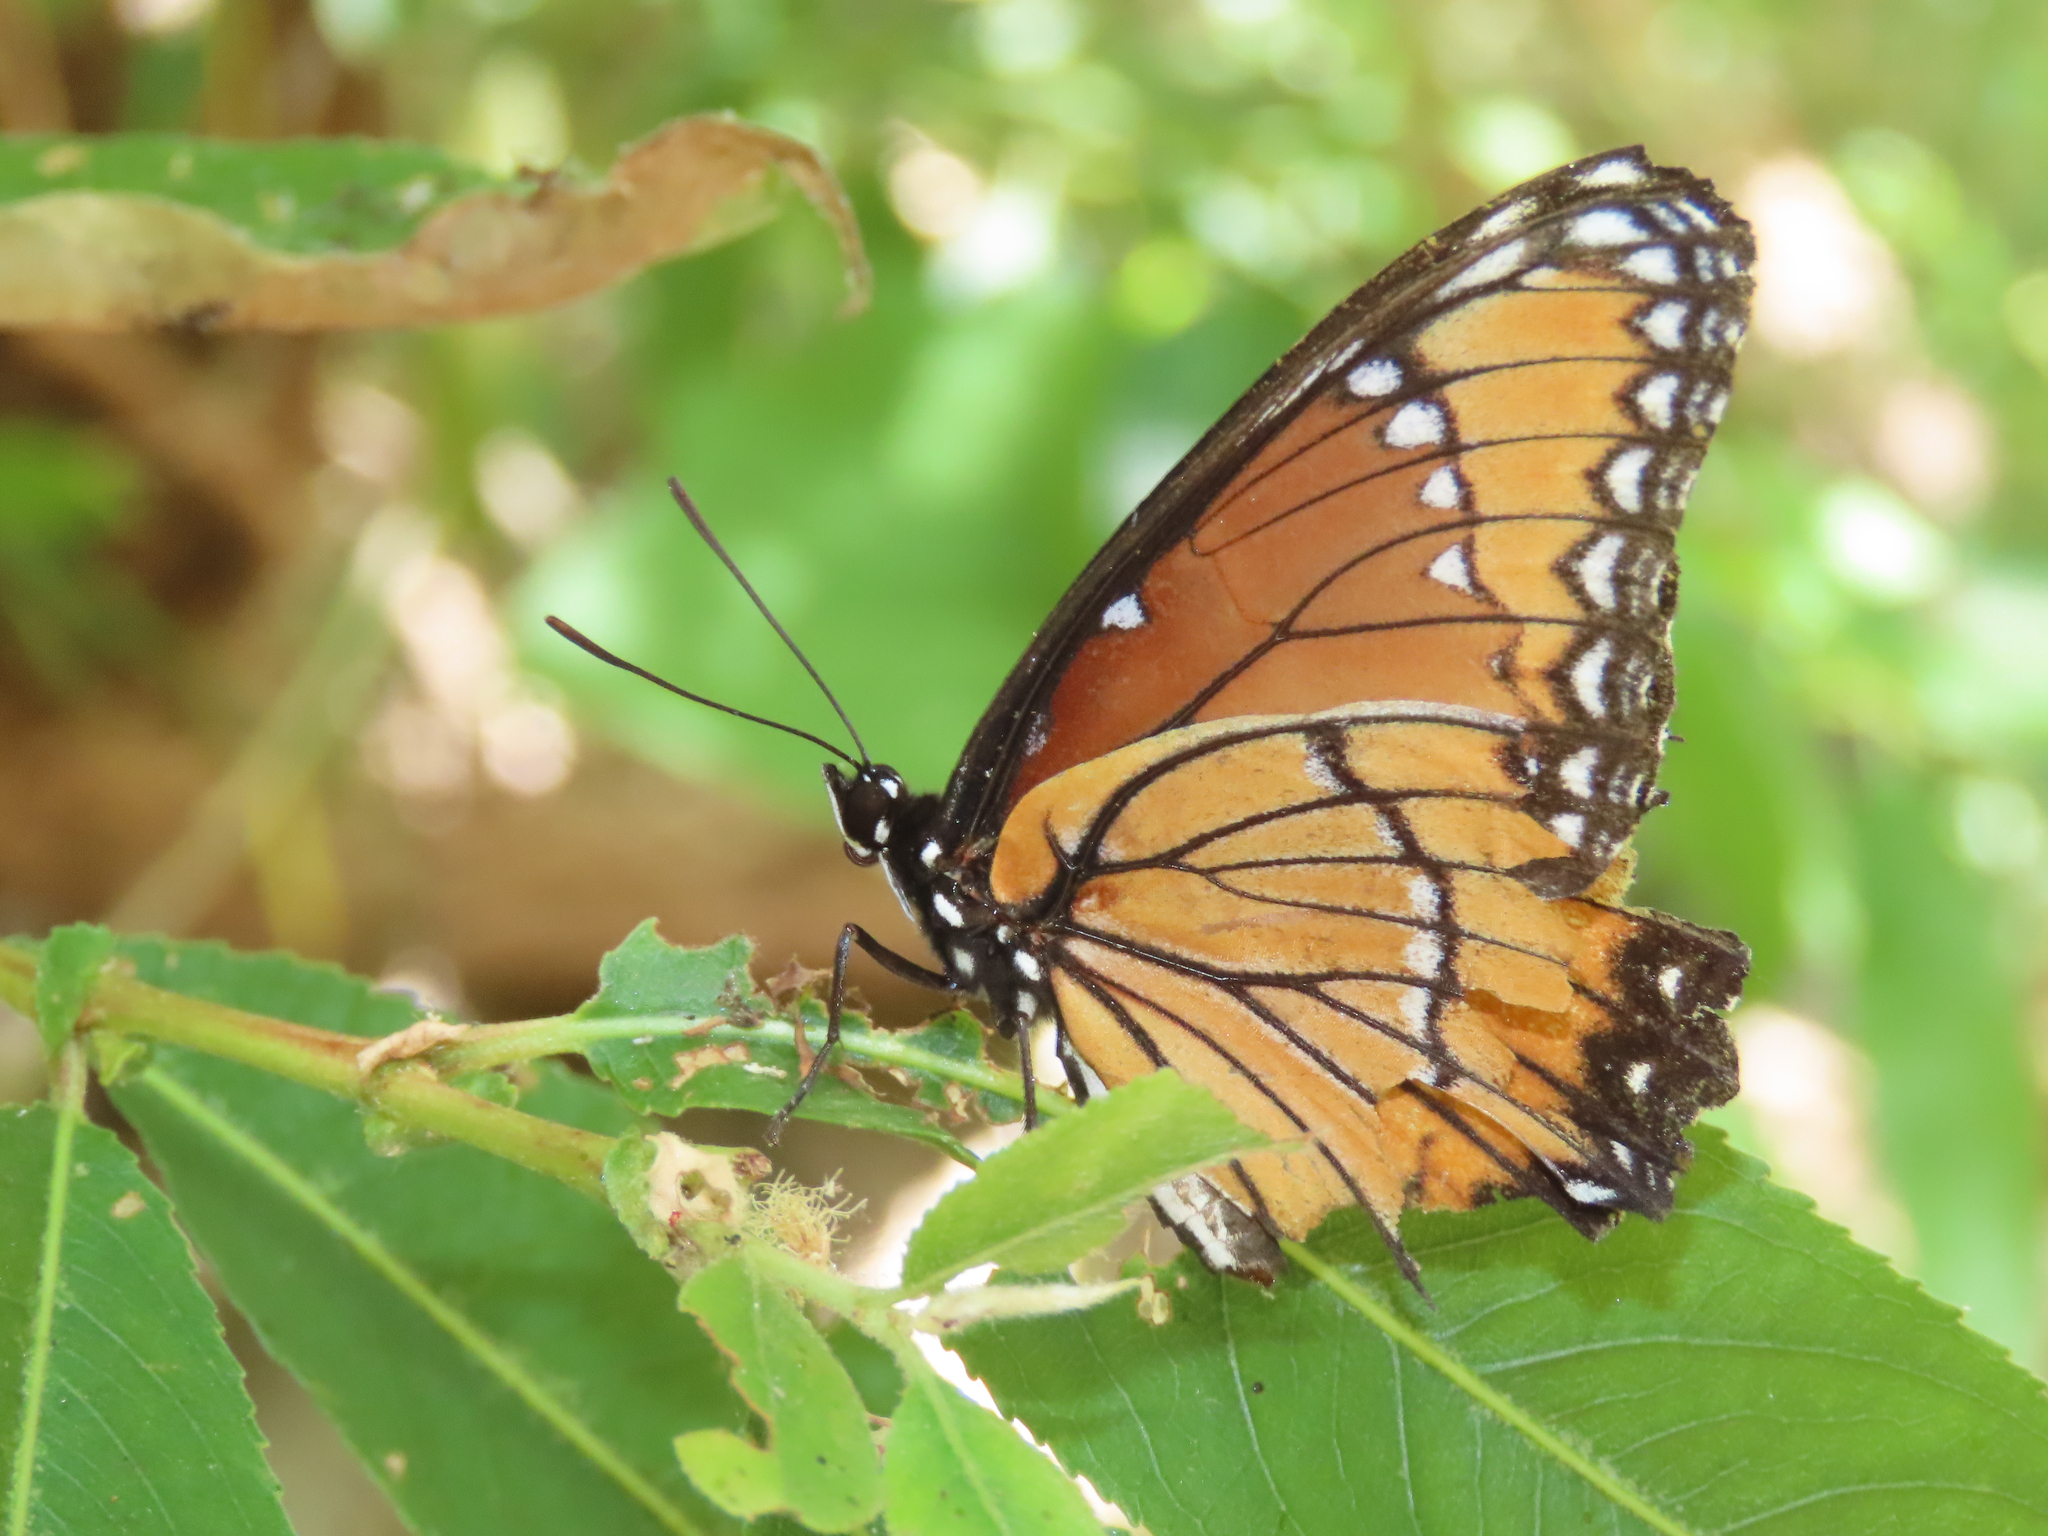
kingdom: Animalia
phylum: Arthropoda
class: Insecta
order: Lepidoptera
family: Nymphalidae
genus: Limenitis
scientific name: Limenitis archippus
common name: Viceroy
